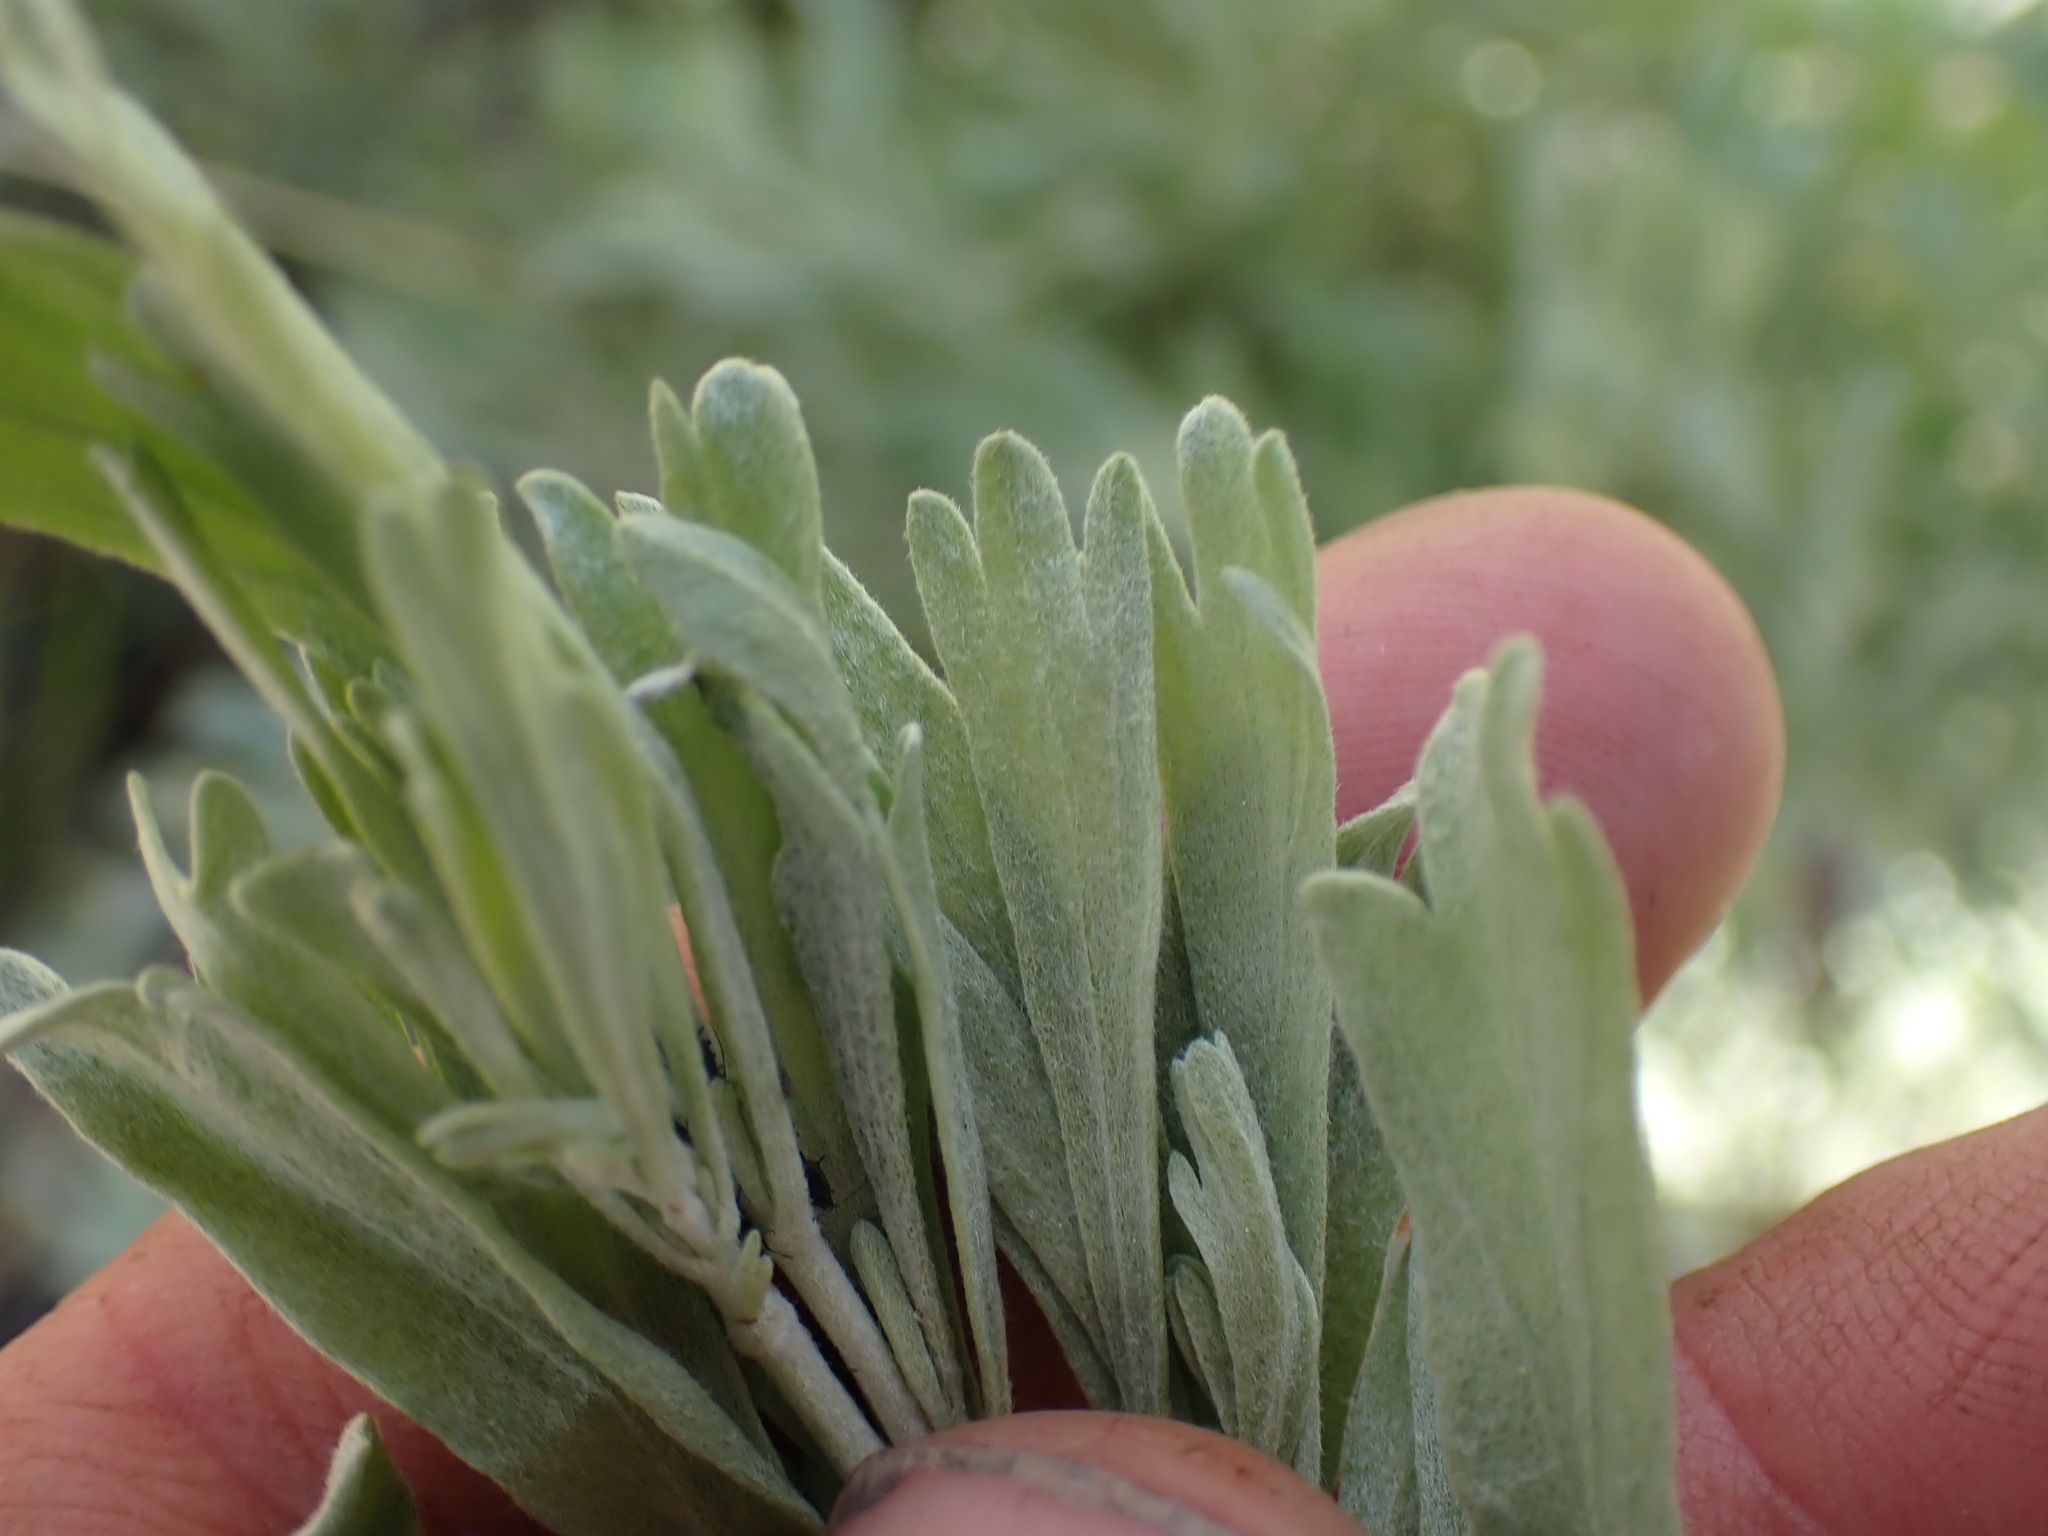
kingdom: Plantae
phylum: Tracheophyta
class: Magnoliopsida
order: Asterales
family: Asteraceae
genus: Artemisia
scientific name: Artemisia tridentata
